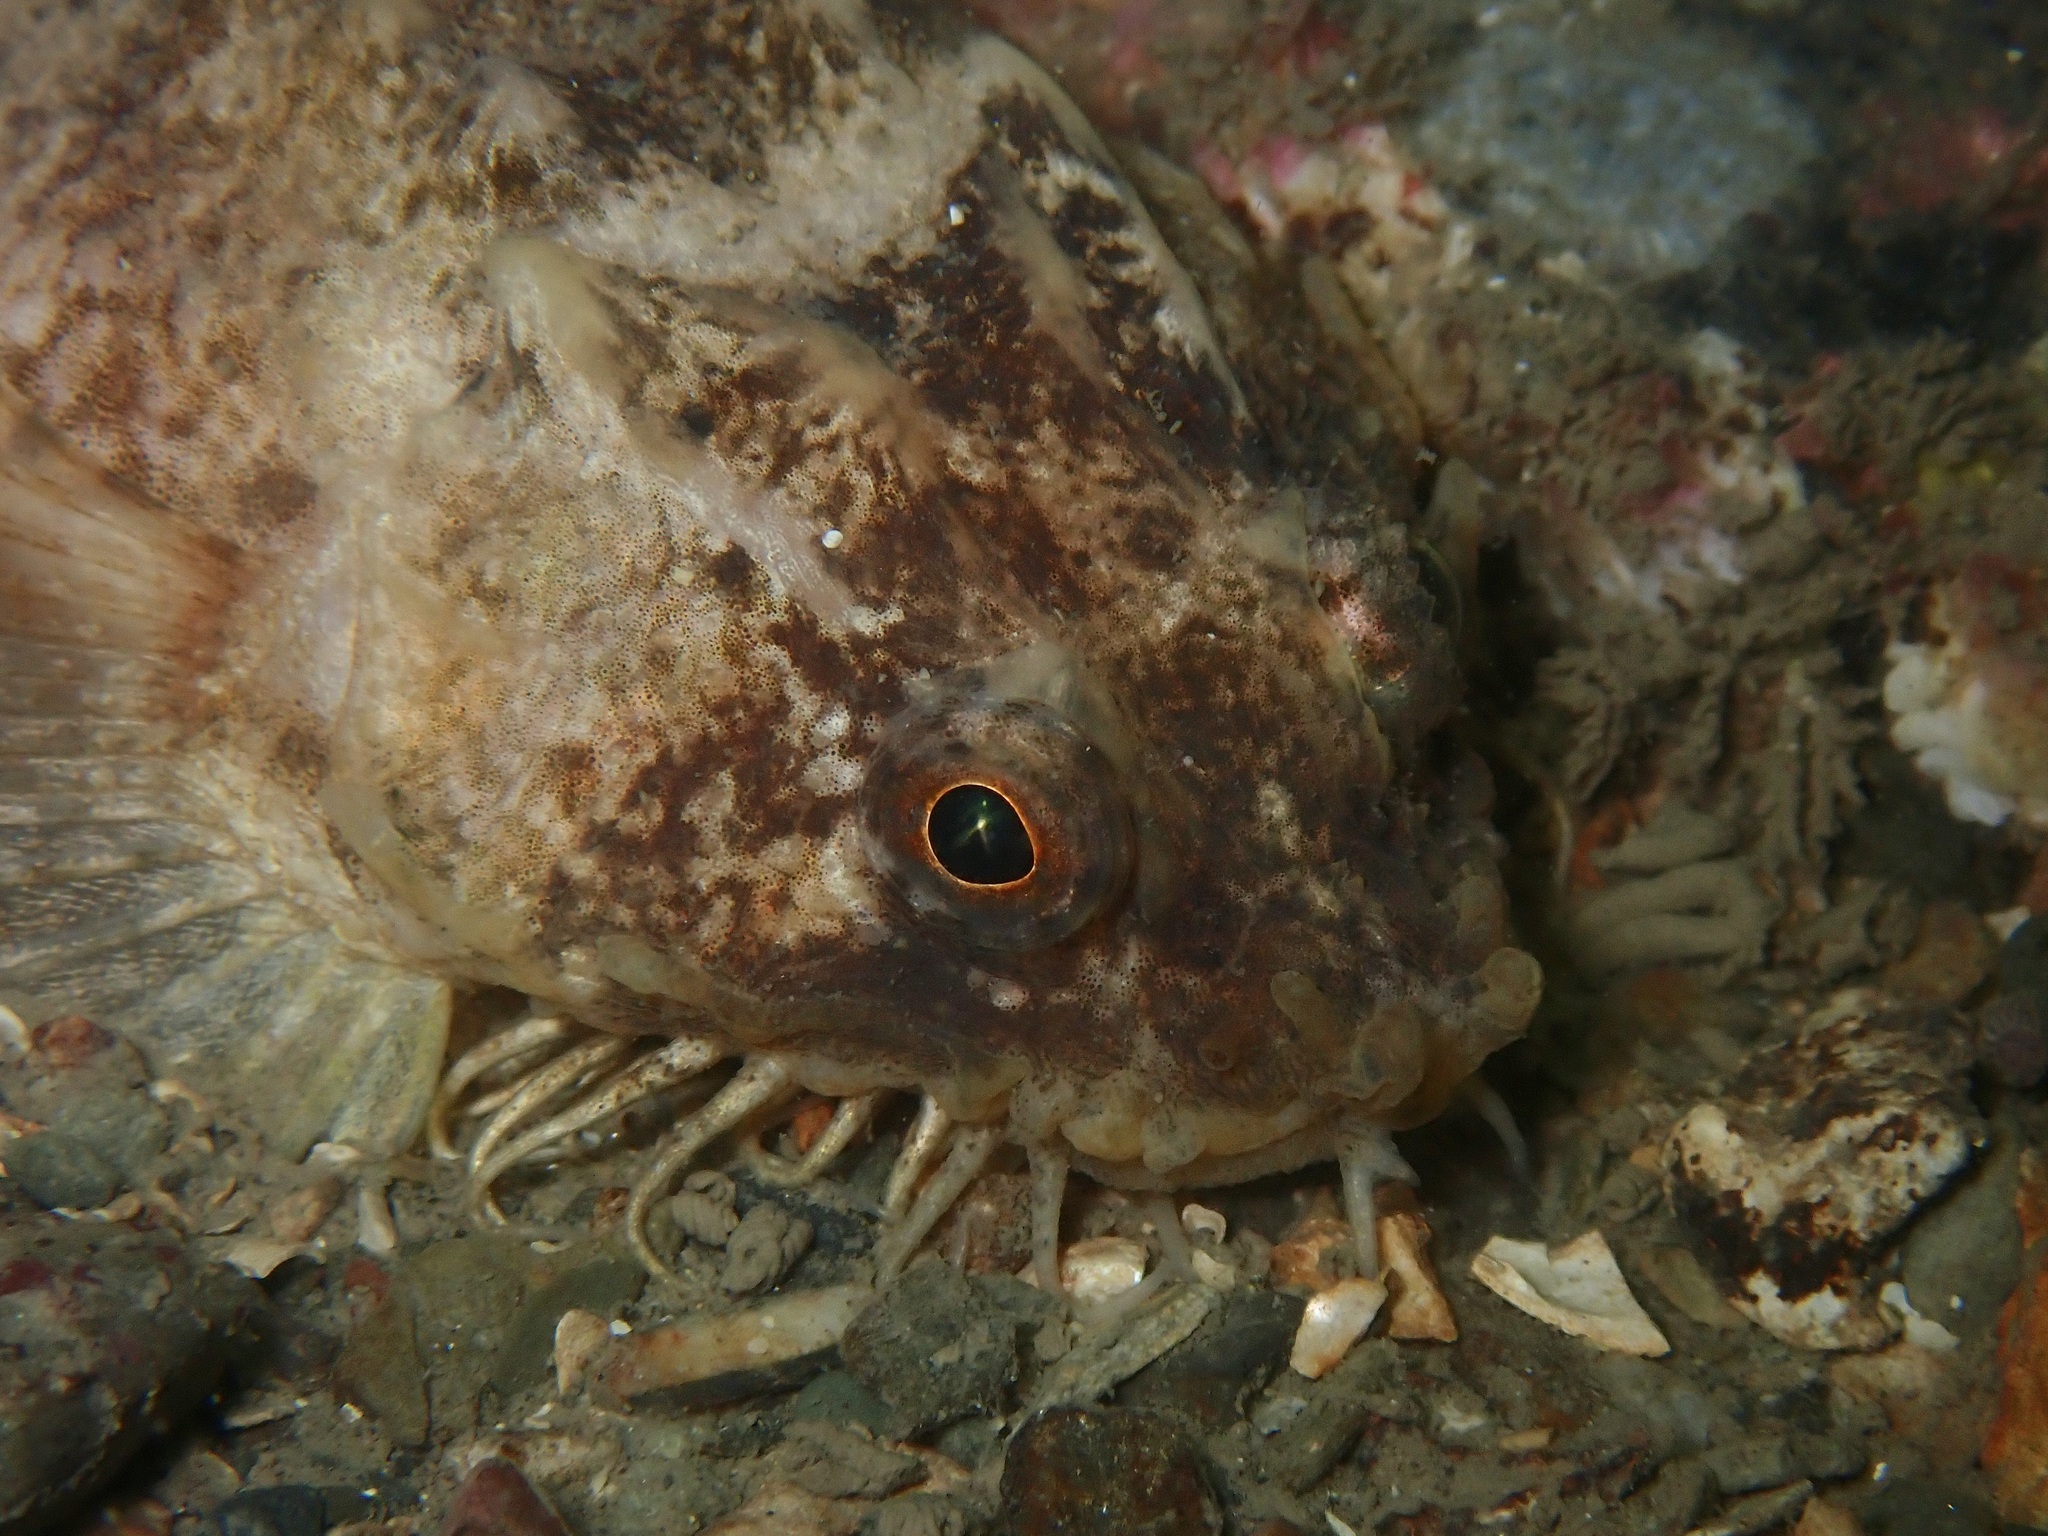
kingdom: Animalia
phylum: Chordata
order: Scorpaeniformes
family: Agonidae
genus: Agonus
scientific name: Agonus cataphractus
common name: Pogge
